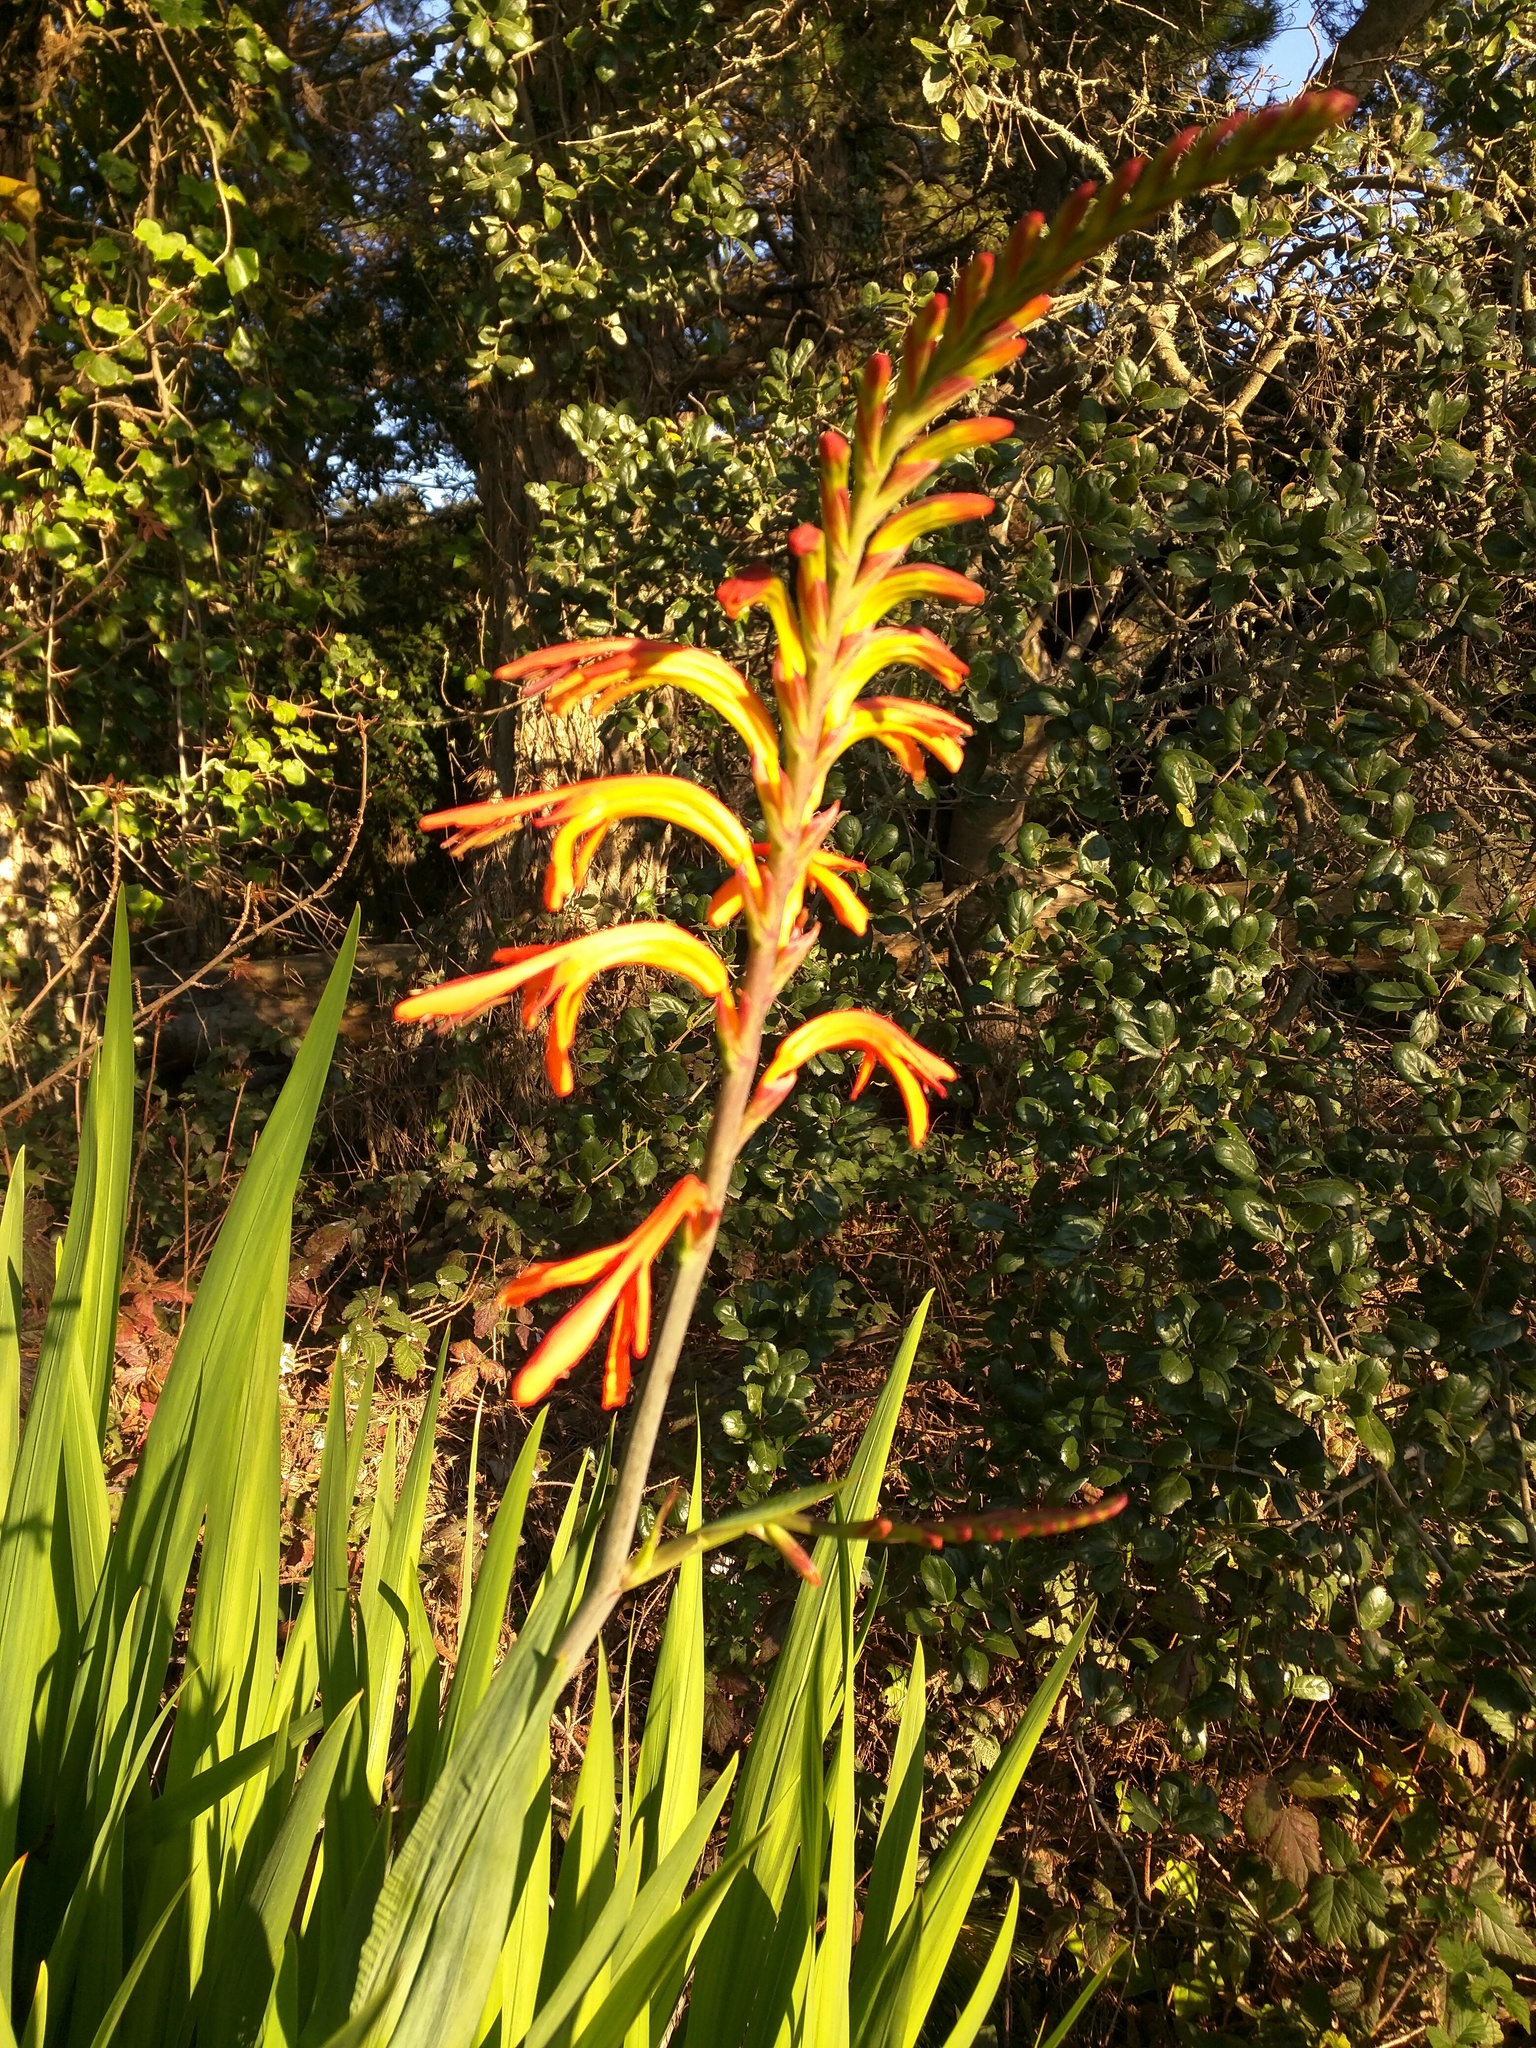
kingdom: Plantae
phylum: Tracheophyta
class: Liliopsida
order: Asparagales
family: Iridaceae
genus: Chasmanthe
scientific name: Chasmanthe floribunda
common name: African cornflag
